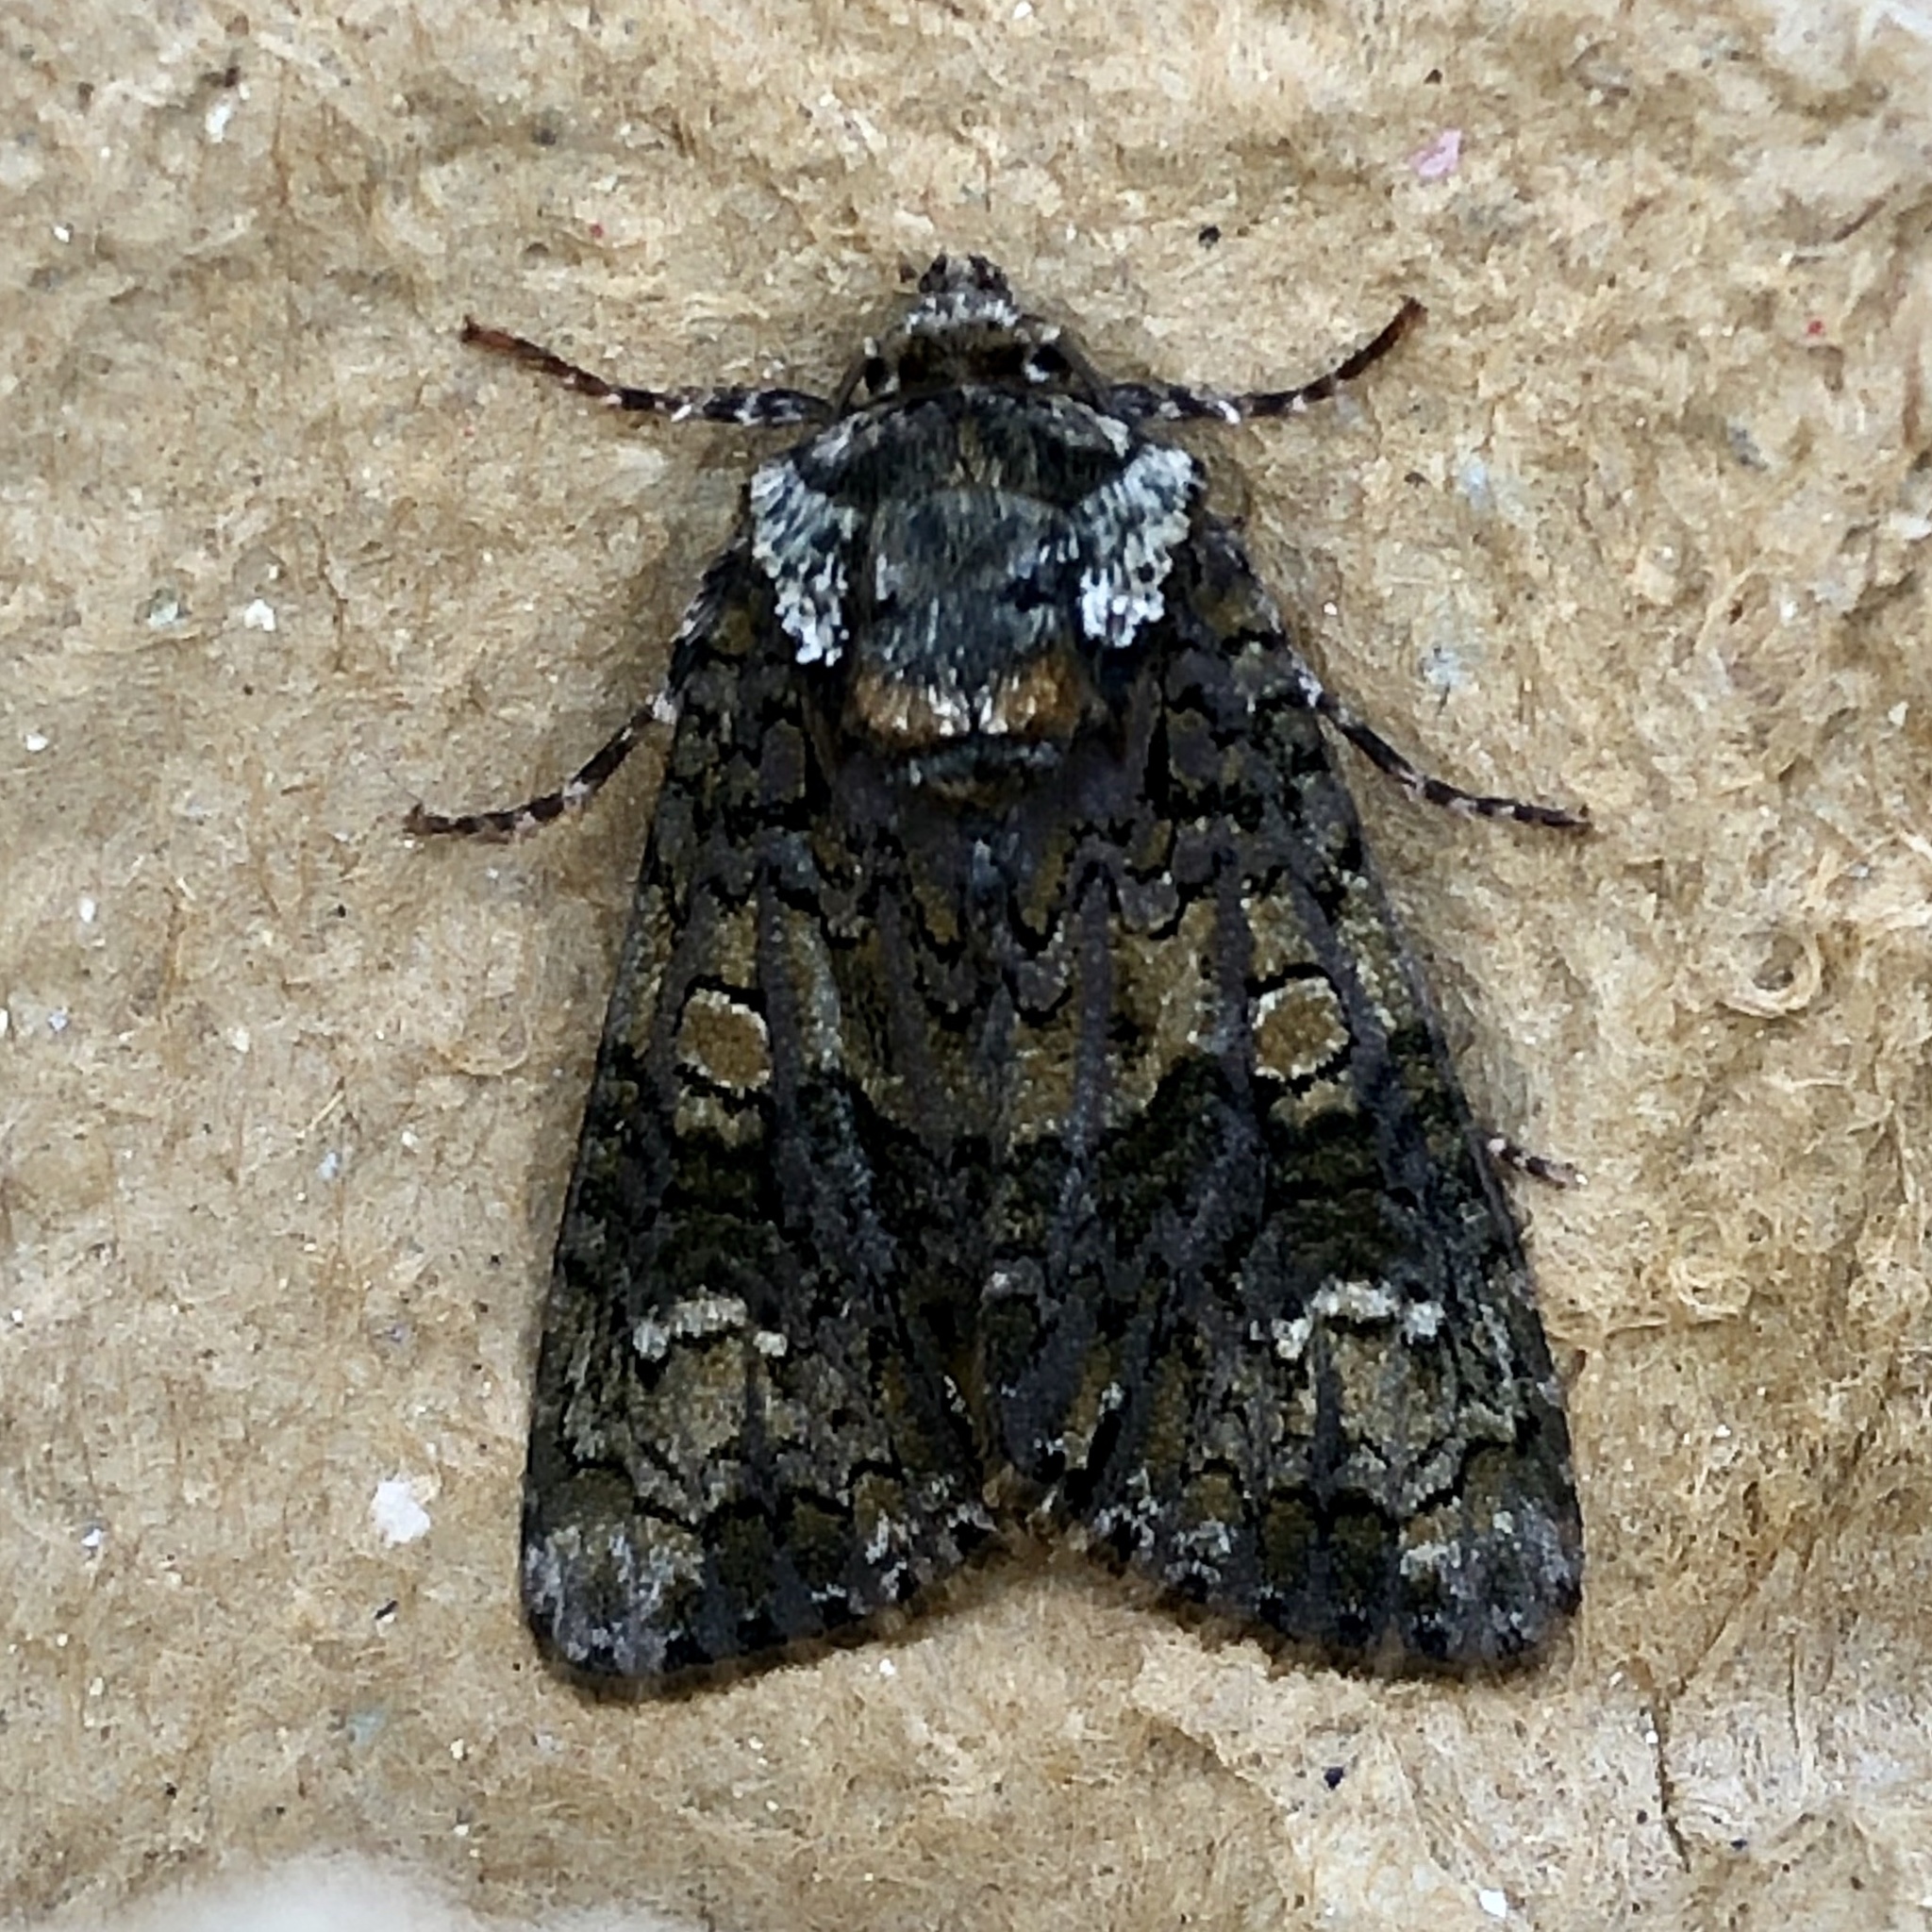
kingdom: Animalia
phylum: Arthropoda
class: Insecta
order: Lepidoptera
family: Noctuidae
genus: Craniophora
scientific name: Craniophora ligustri
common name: Coronet
